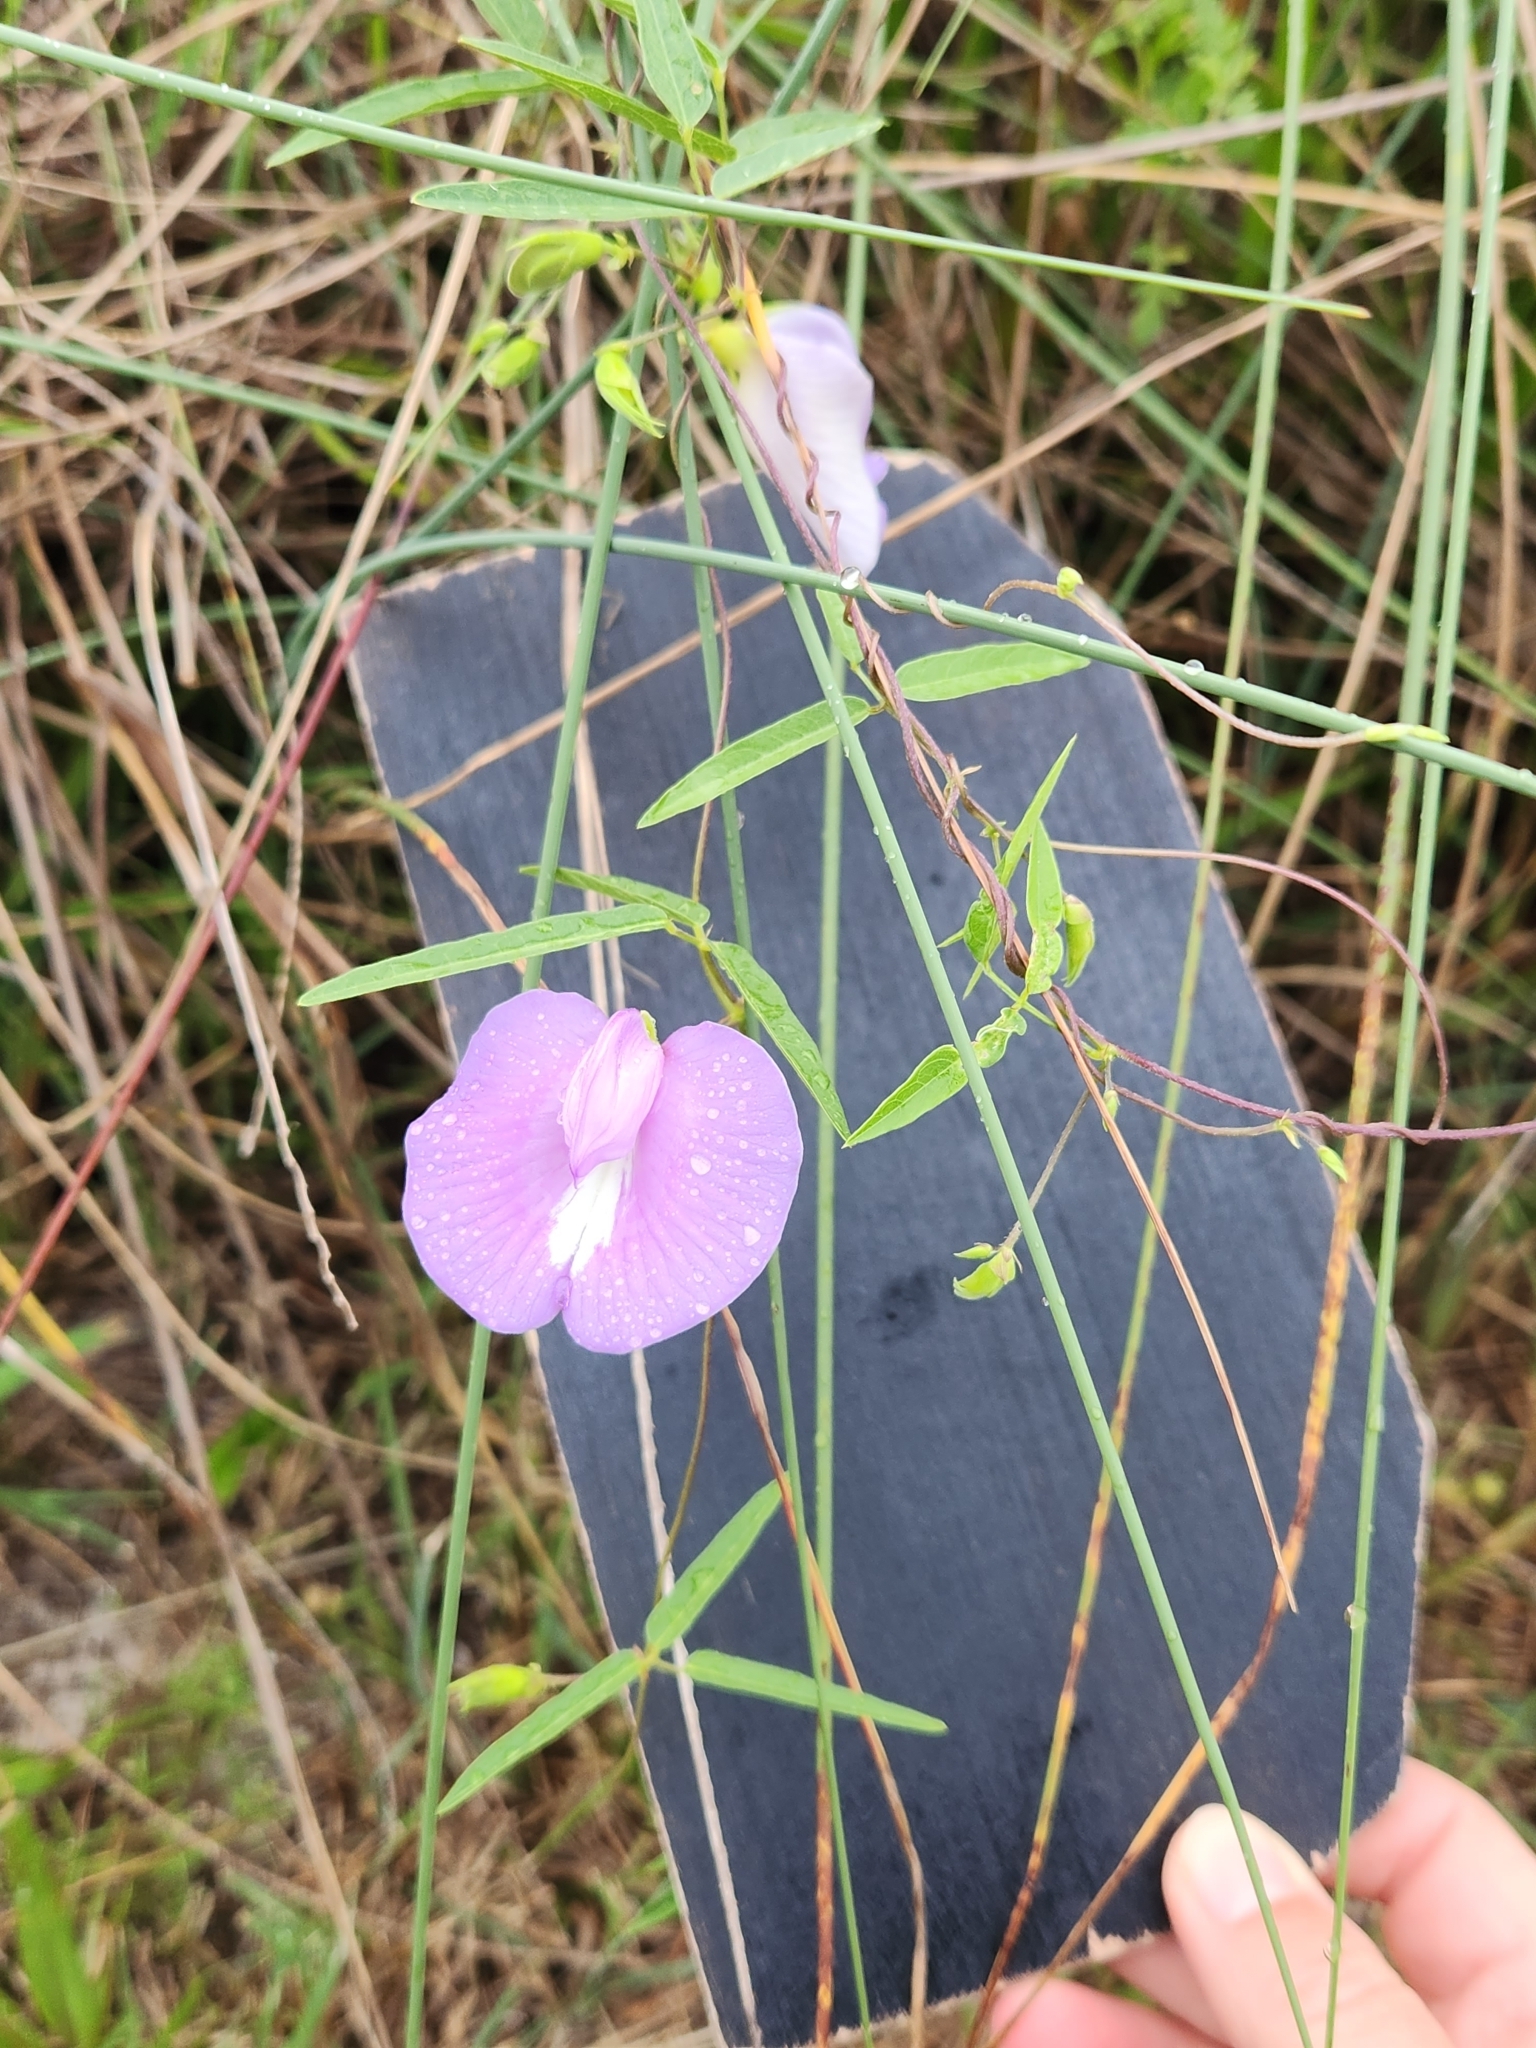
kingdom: Plantae
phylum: Tracheophyta
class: Magnoliopsida
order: Fabales
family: Fabaceae
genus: Centrosema
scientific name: Centrosema virginianum
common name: Butterfly-pea
